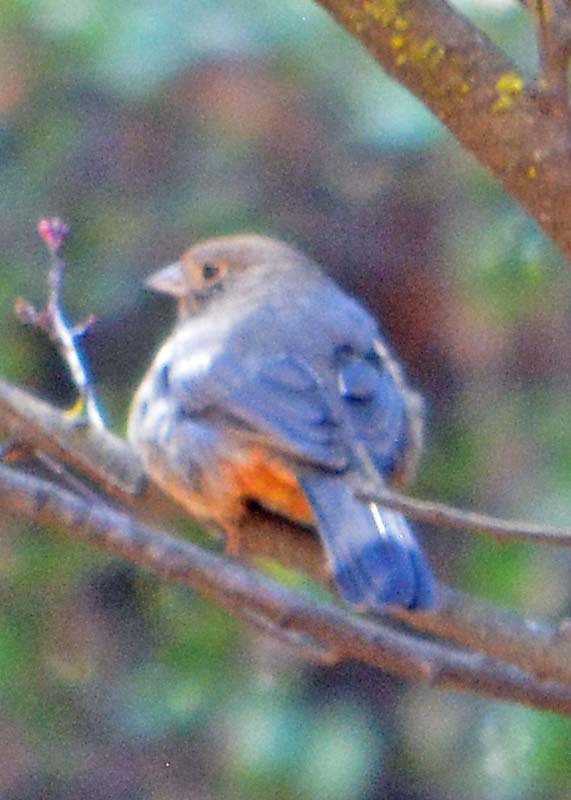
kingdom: Animalia
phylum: Chordata
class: Aves
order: Passeriformes
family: Passerellidae
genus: Melozone
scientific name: Melozone fusca
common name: Canyon towhee
